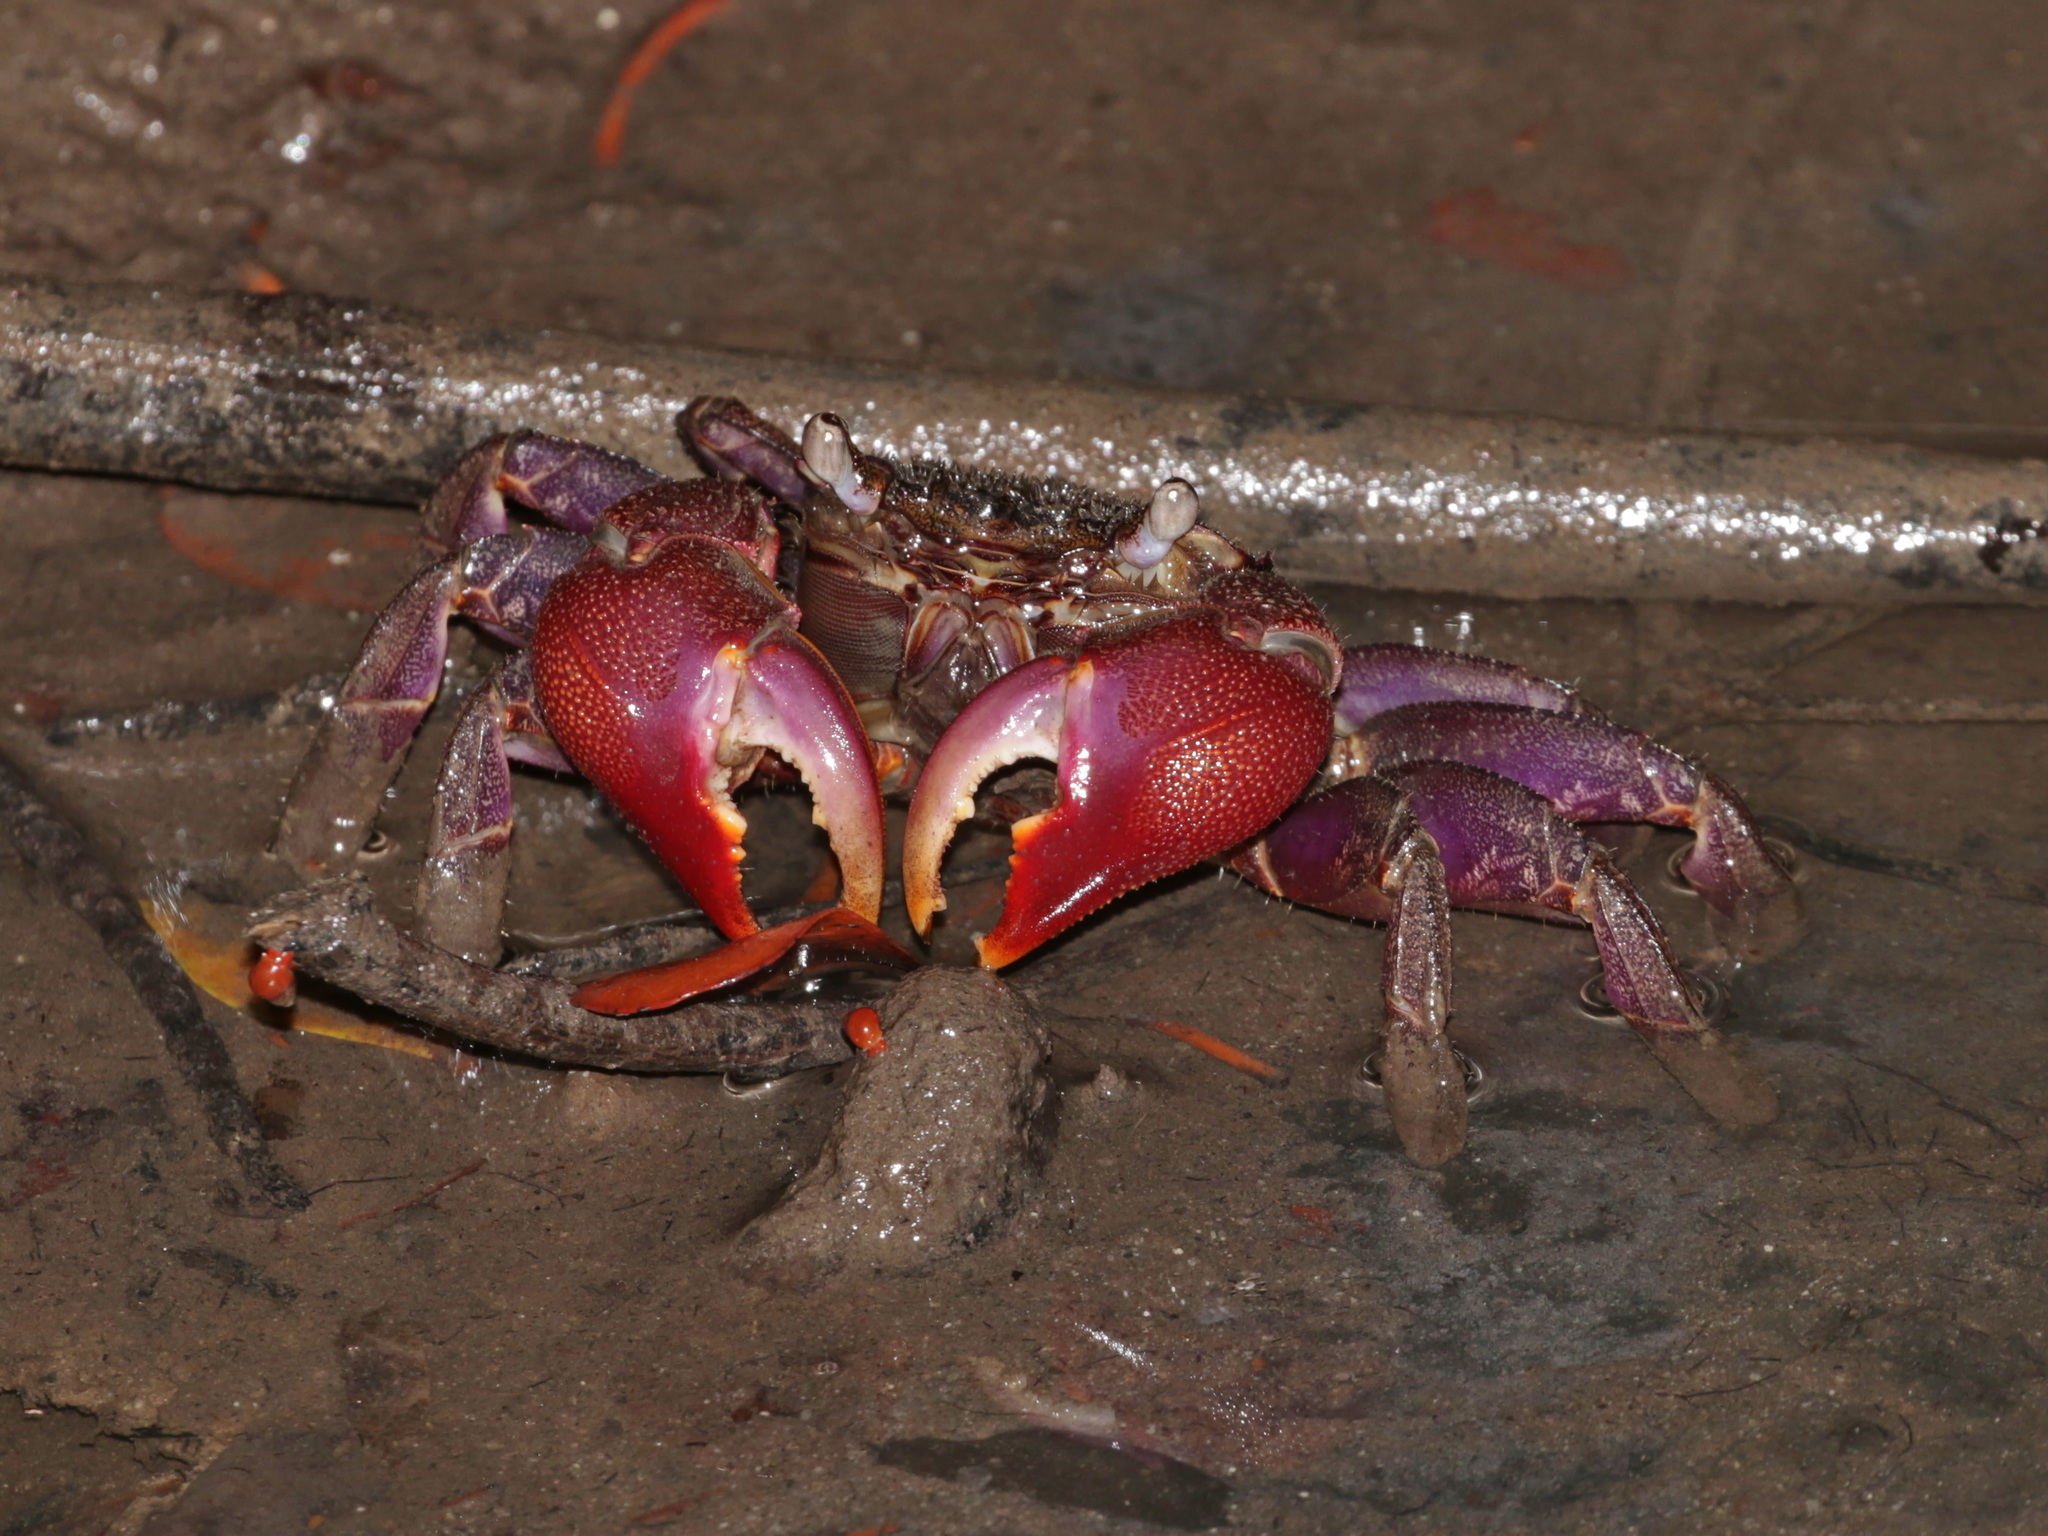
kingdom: Animalia
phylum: Arthropoda
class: Malacostraca
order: Decapoda
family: Sesarmidae
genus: Episesarma
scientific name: Episesarma mederi
